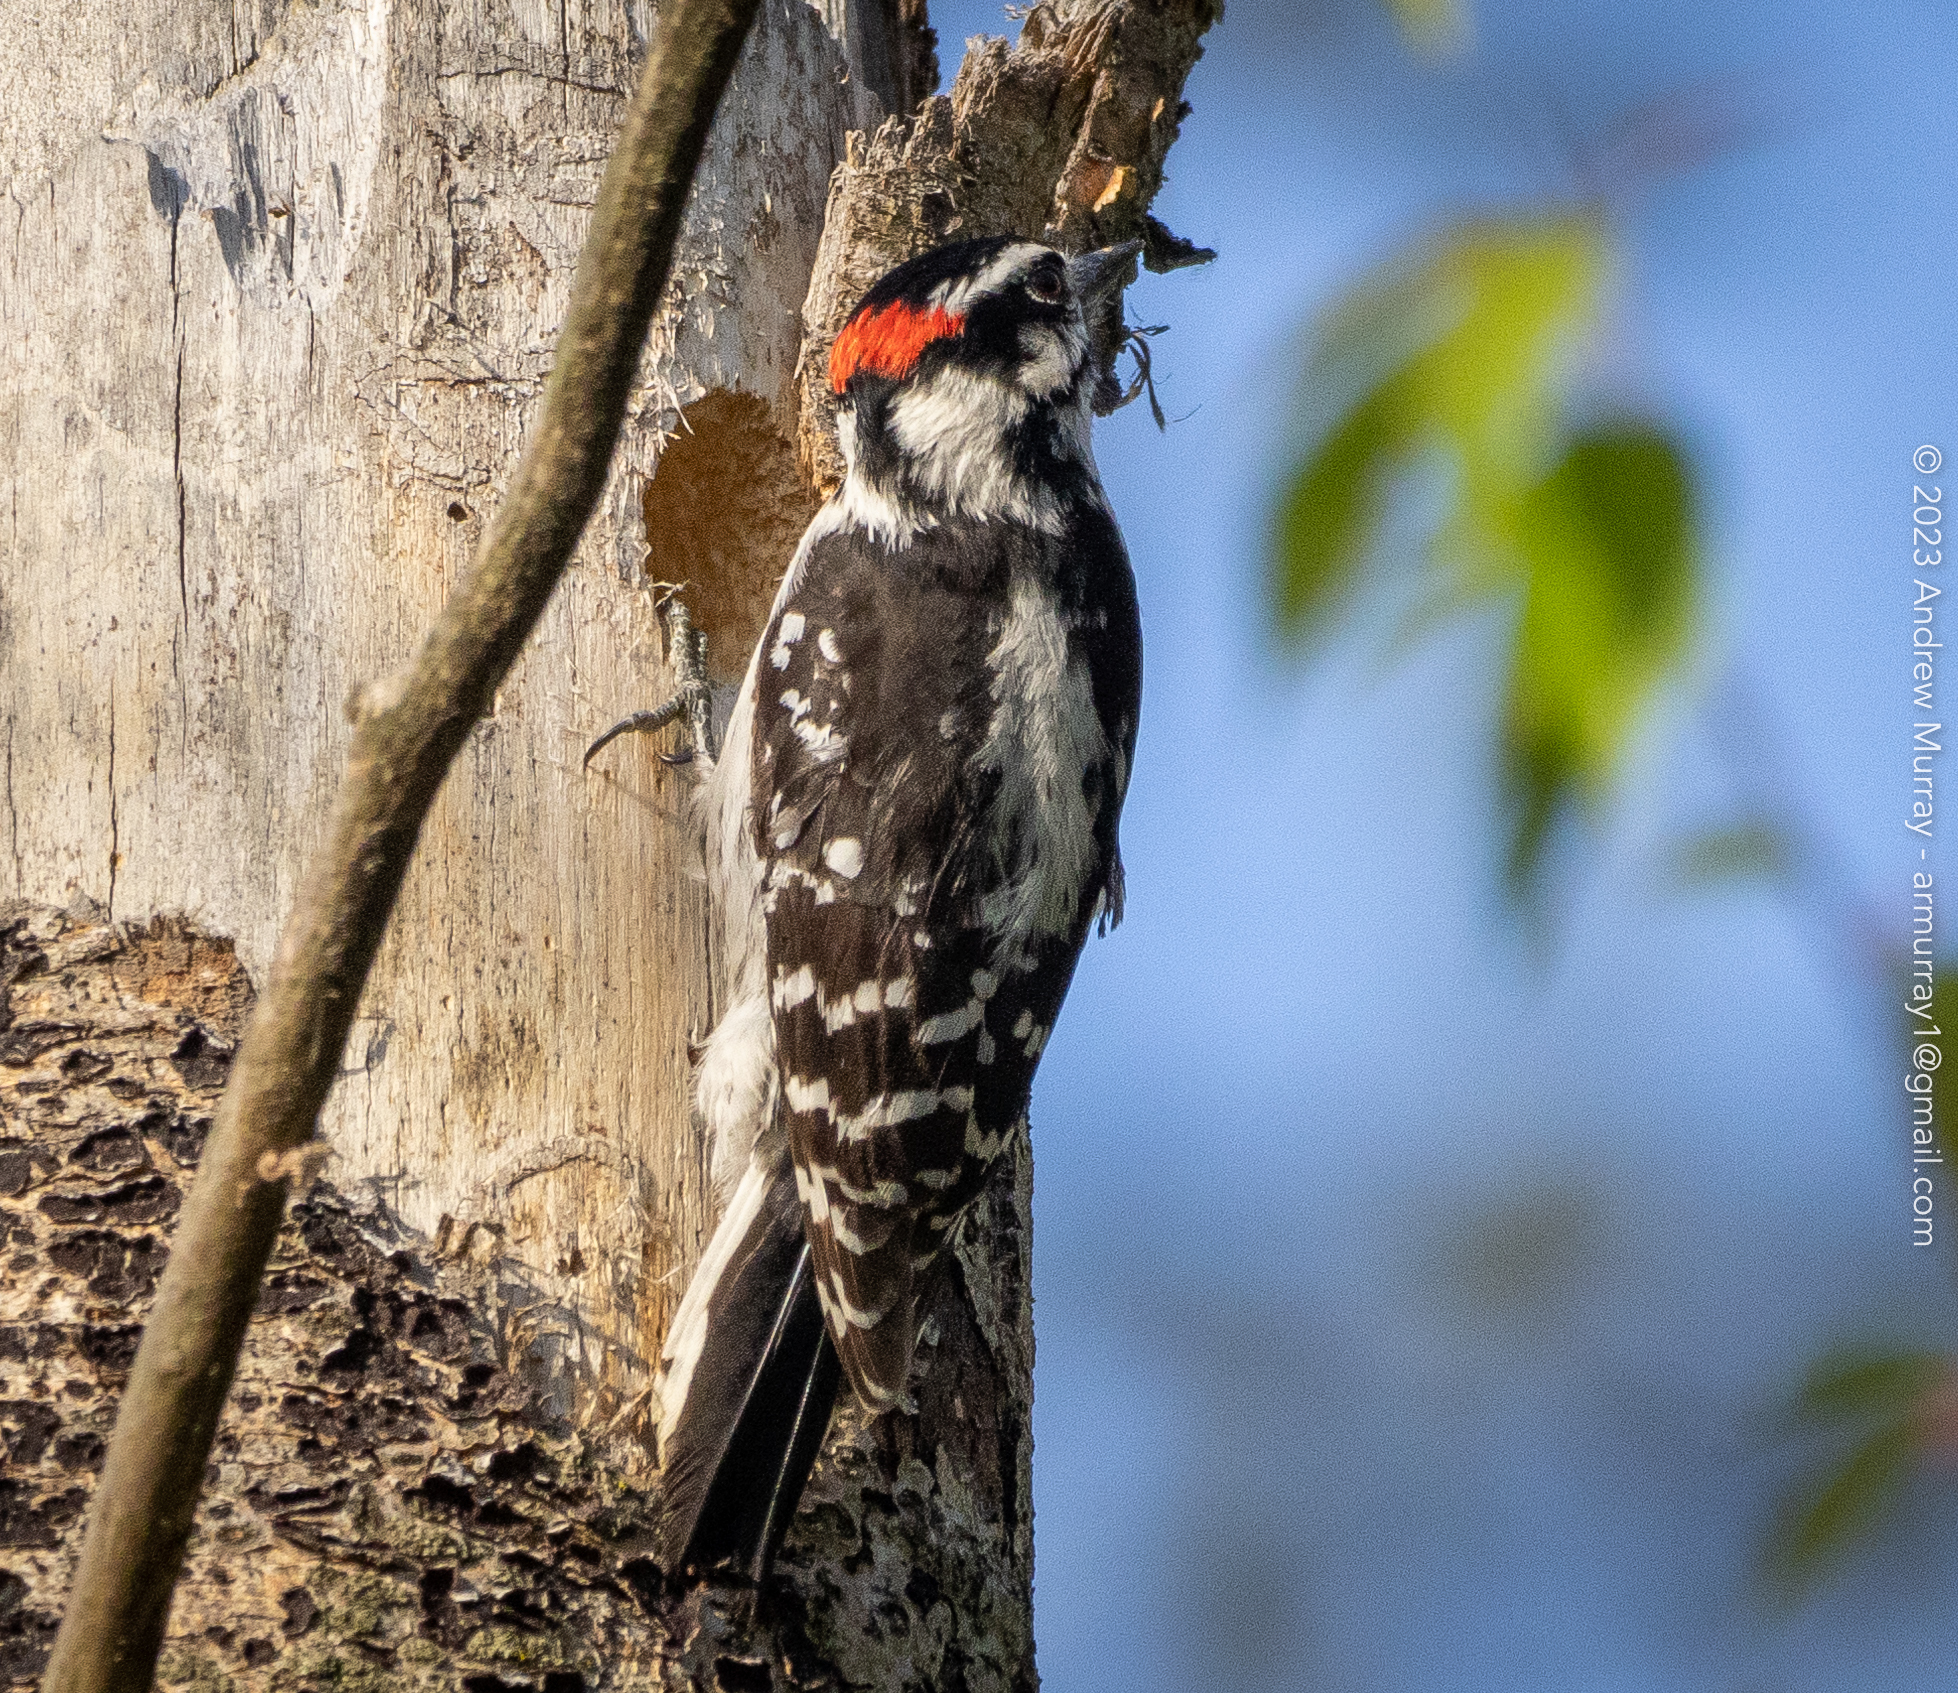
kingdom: Animalia
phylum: Chordata
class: Aves
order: Piciformes
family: Picidae
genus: Dryobates
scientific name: Dryobates pubescens
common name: Downy woodpecker
